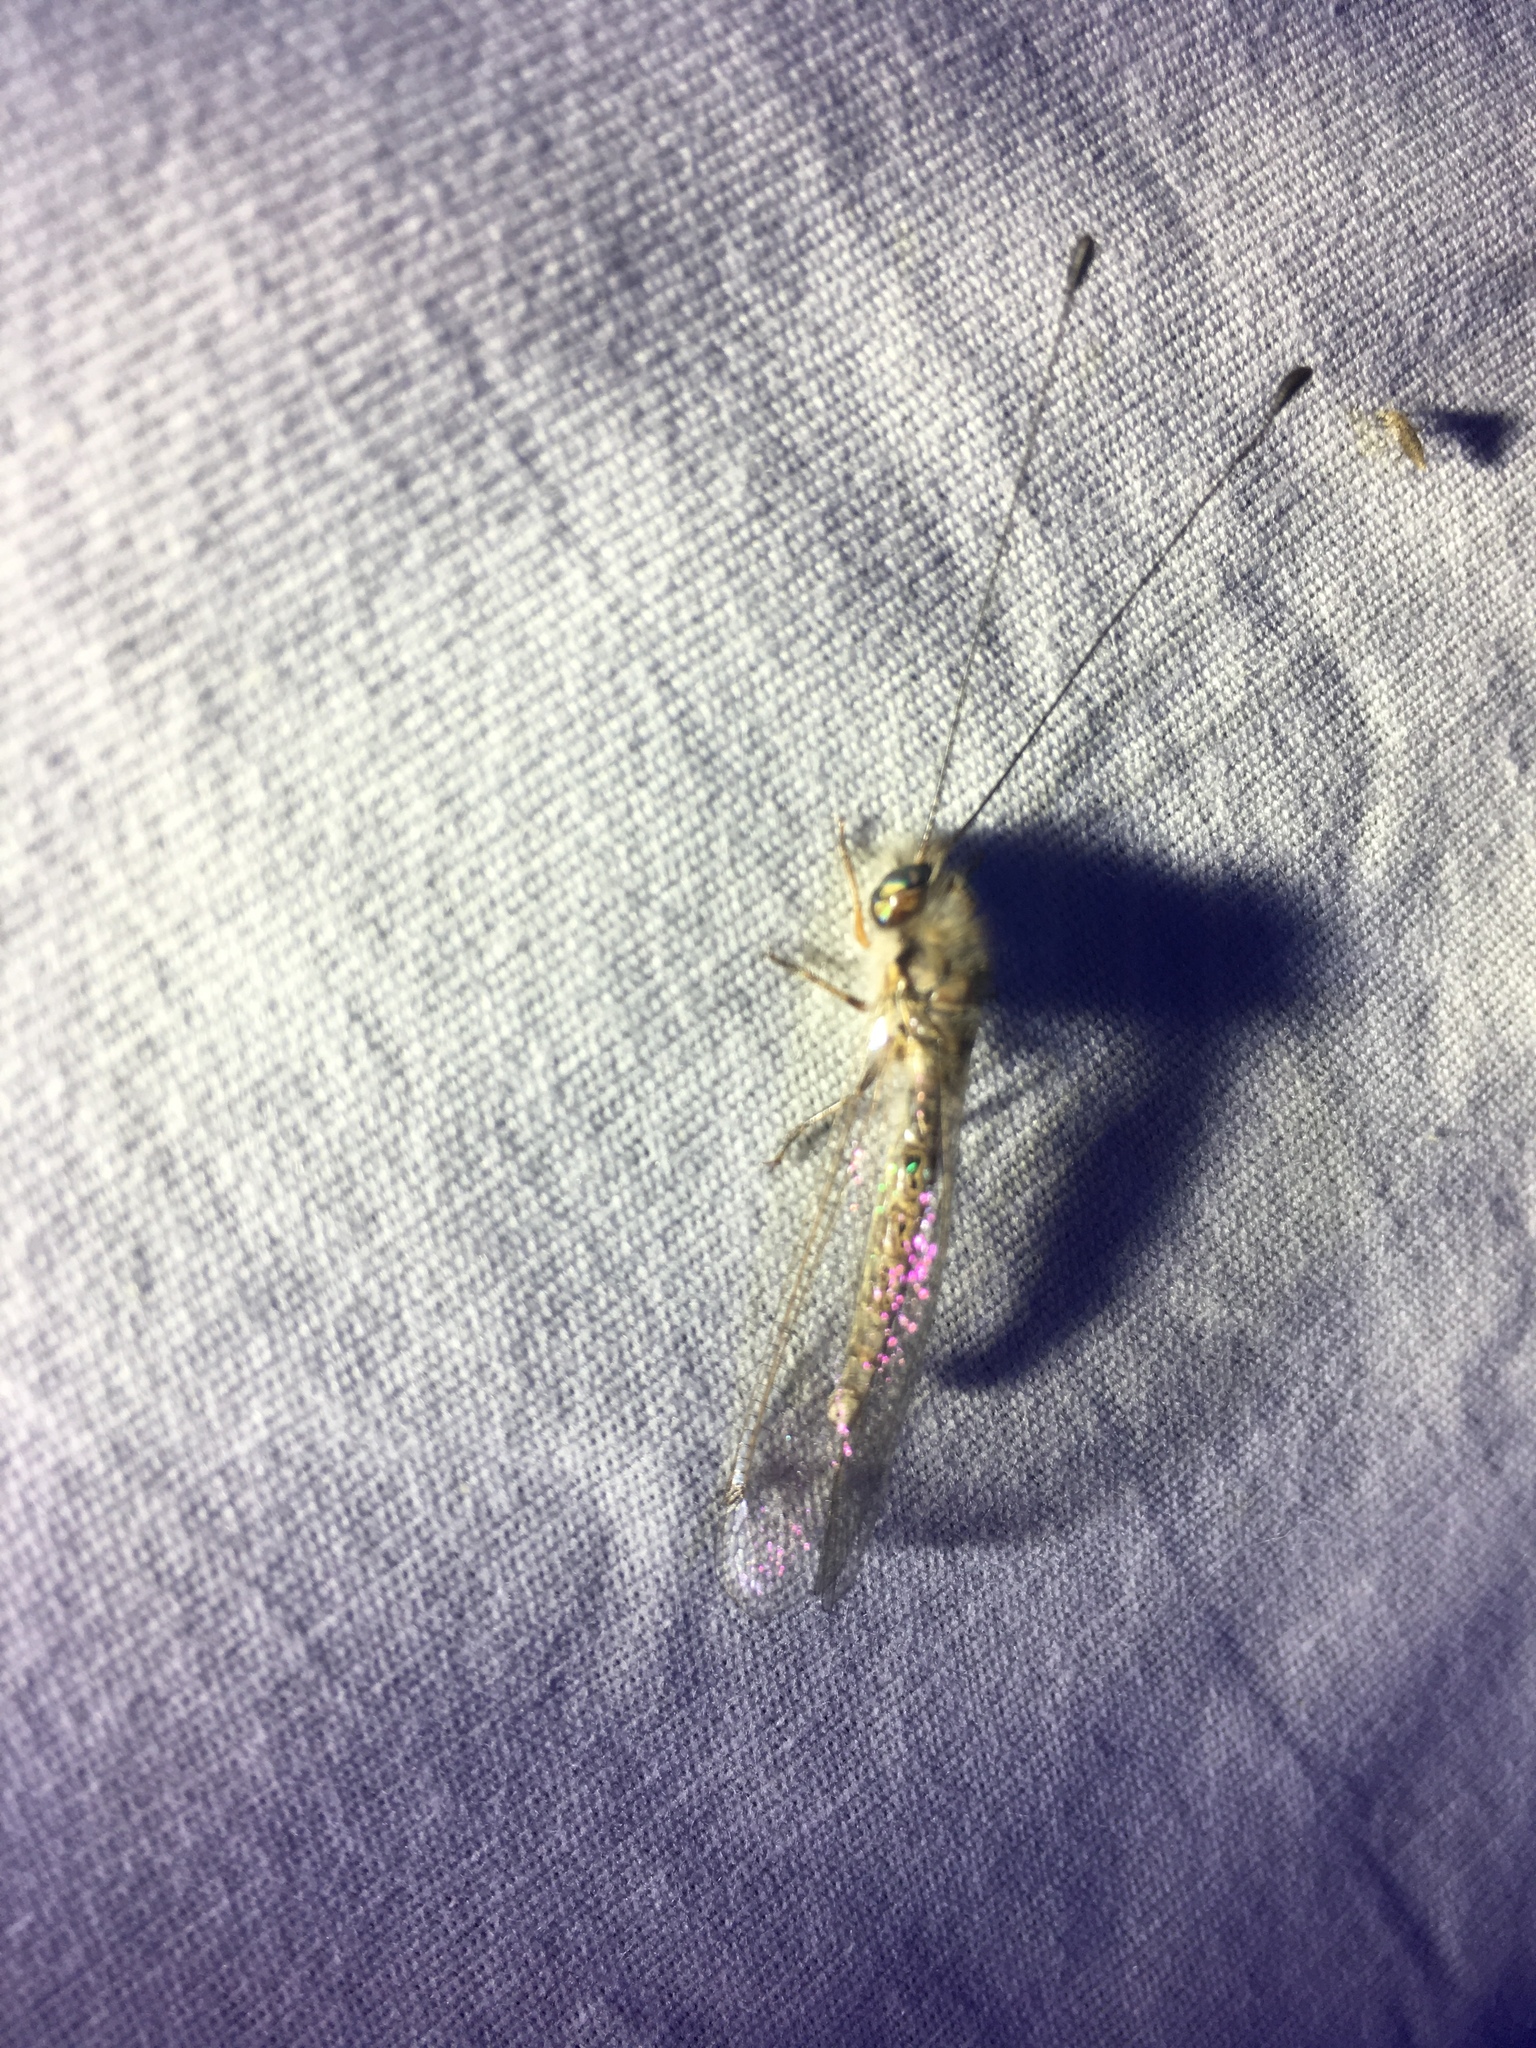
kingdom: Animalia
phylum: Arthropoda
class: Insecta
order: Neuroptera
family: Ascalaphidae
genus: Ululodes
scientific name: Ululodes macleayanus
